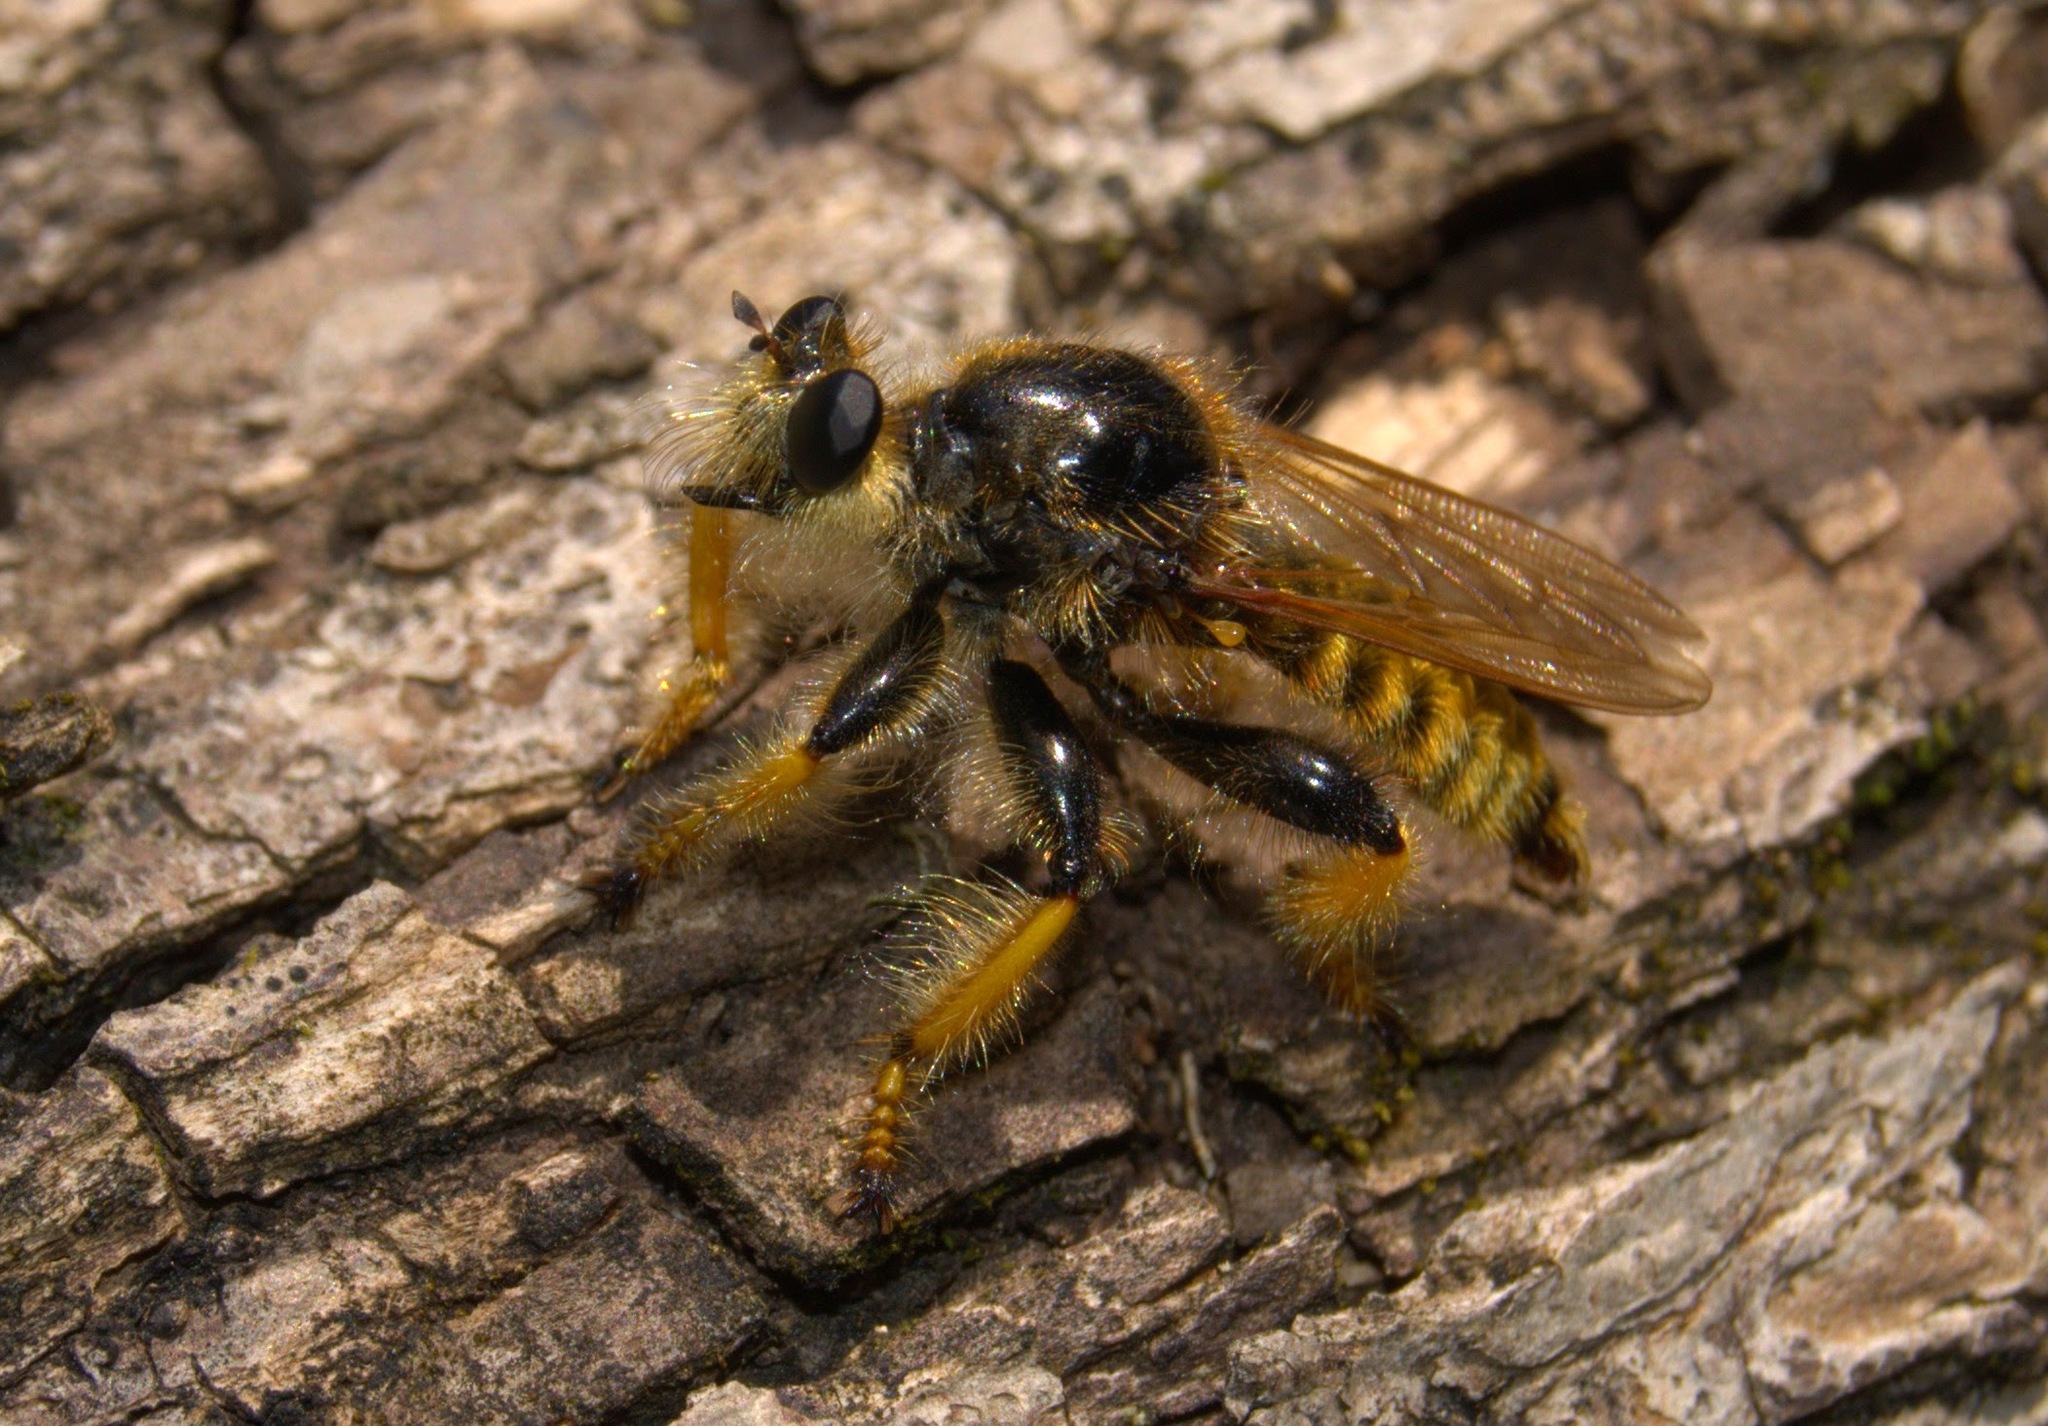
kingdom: Animalia
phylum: Arthropoda
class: Insecta
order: Diptera
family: Asilidae
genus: Pogonosoma
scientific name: Pogonosoma maroccanum
